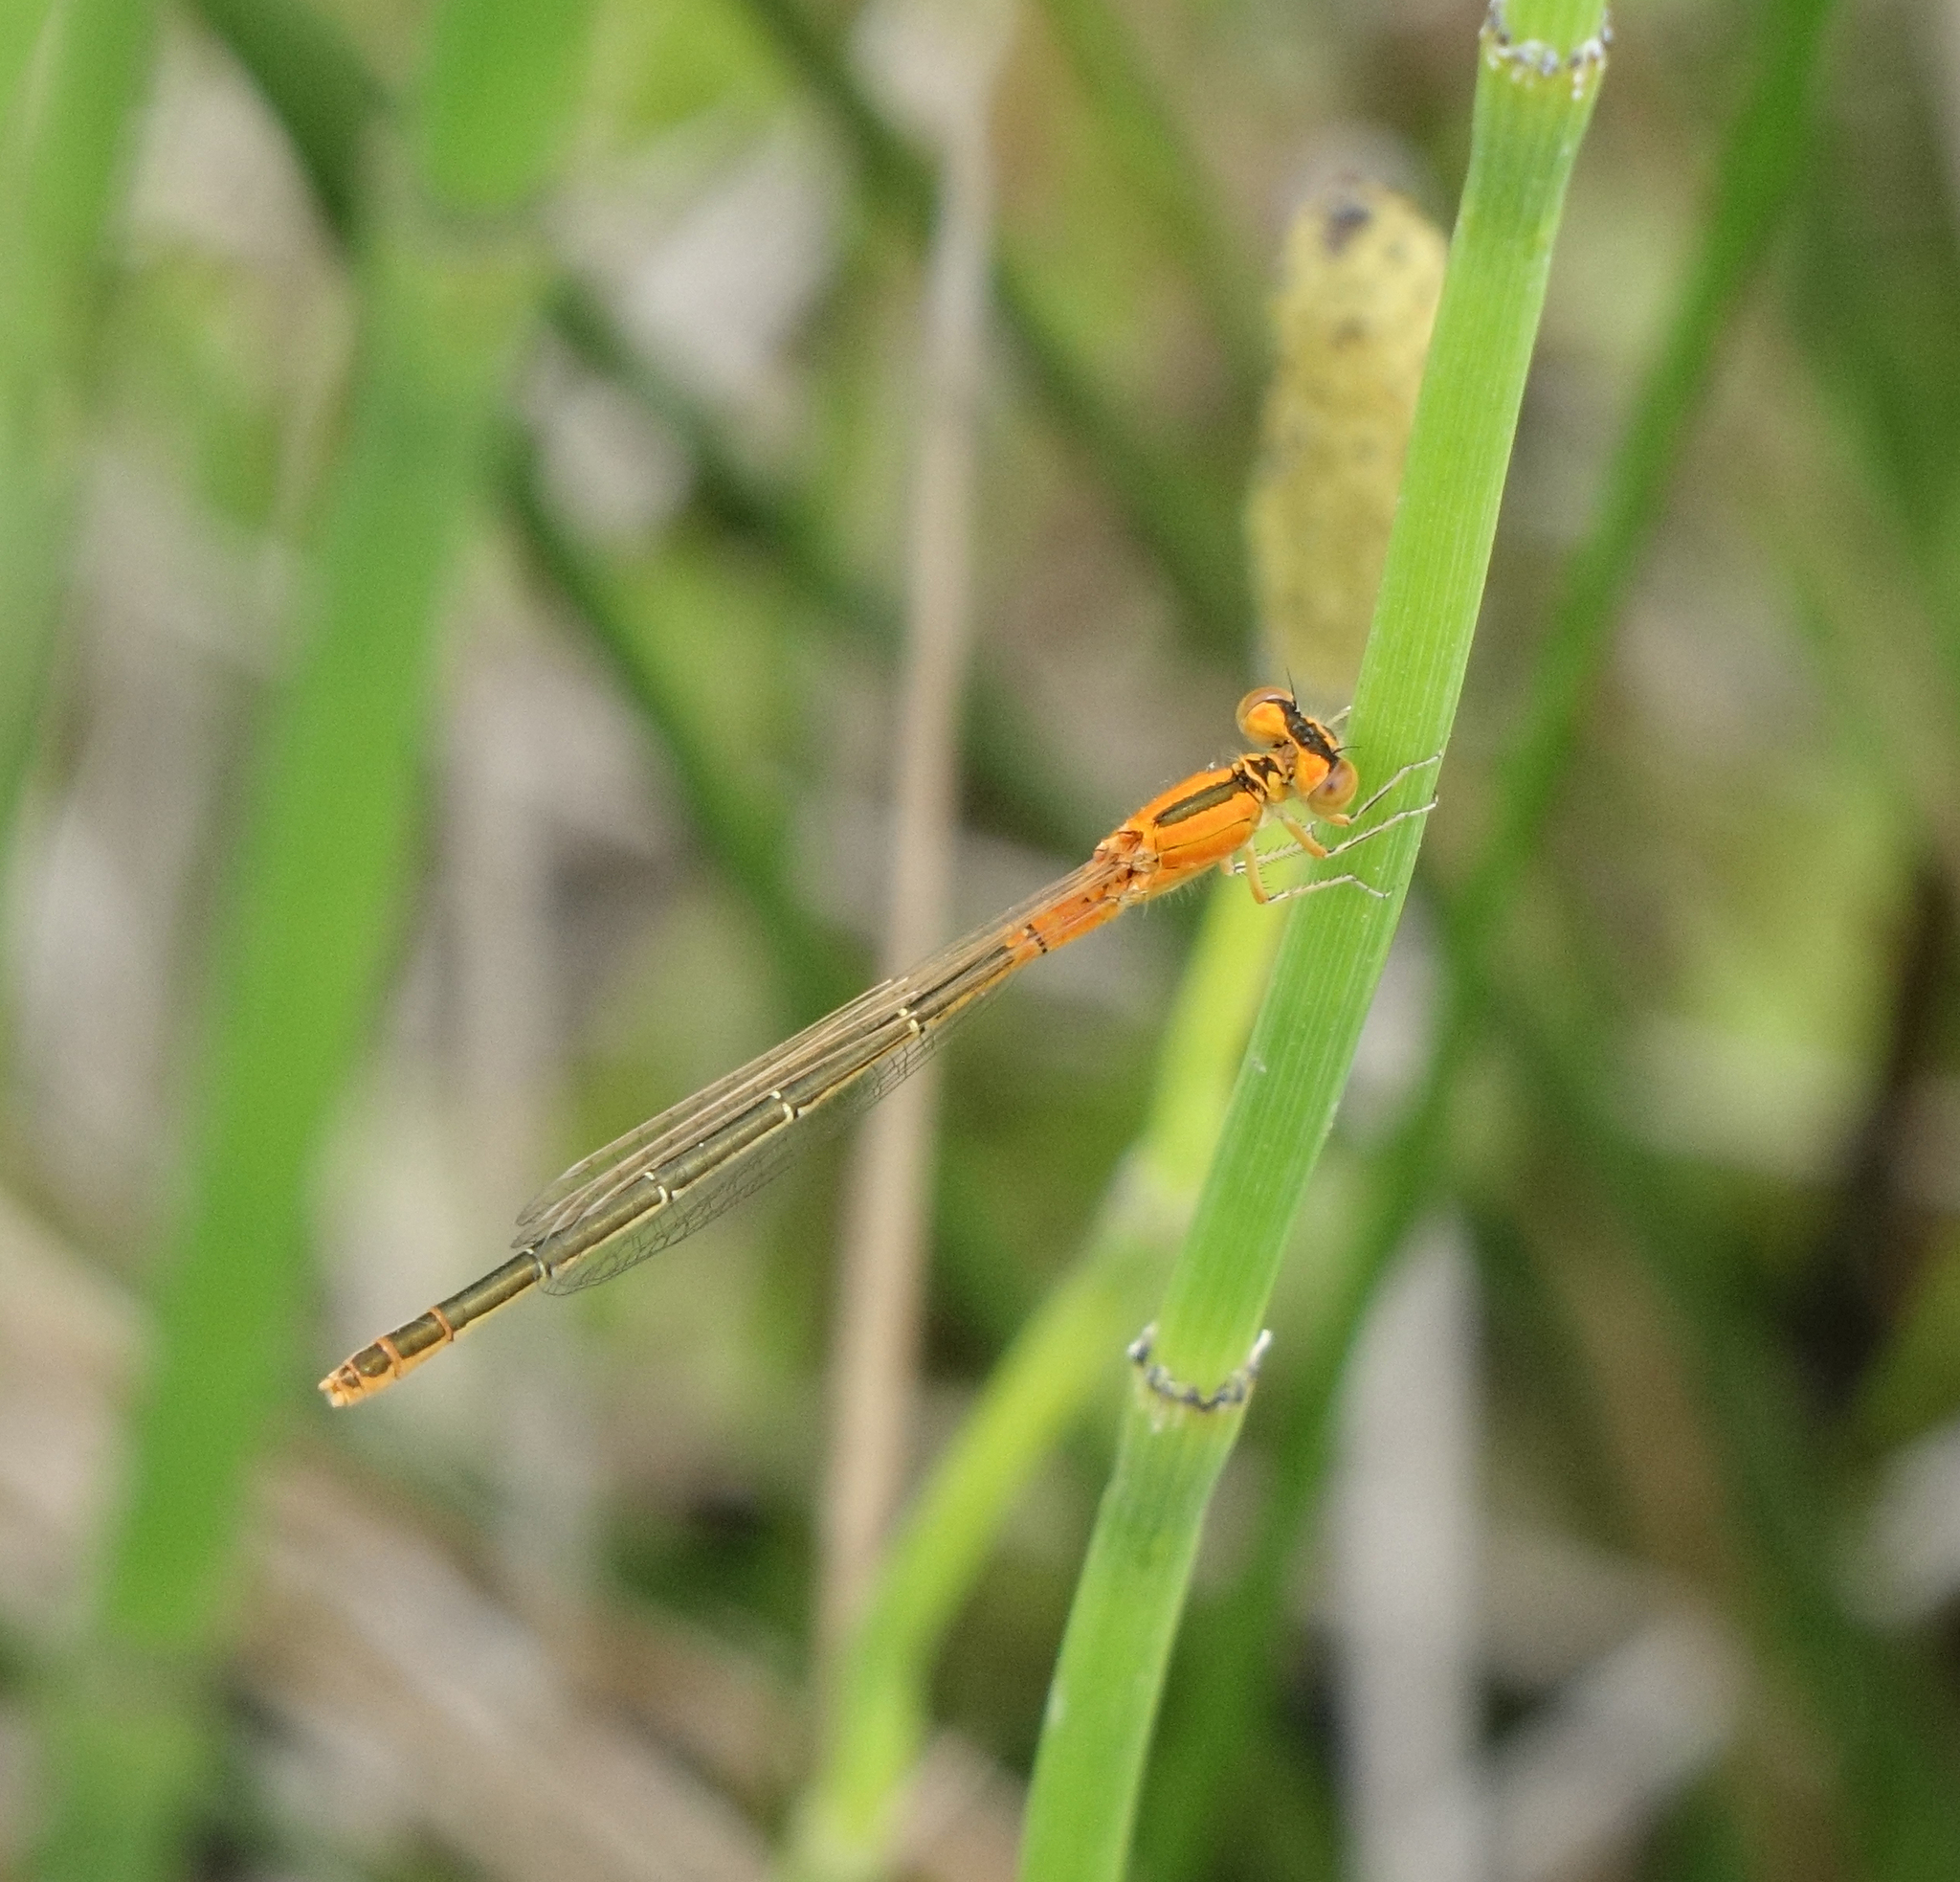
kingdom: Animalia
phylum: Arthropoda
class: Insecta
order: Odonata
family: Coenagrionidae
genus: Ischnura
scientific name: Ischnura pumilio
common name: Scarce blue-tailed damselfly
